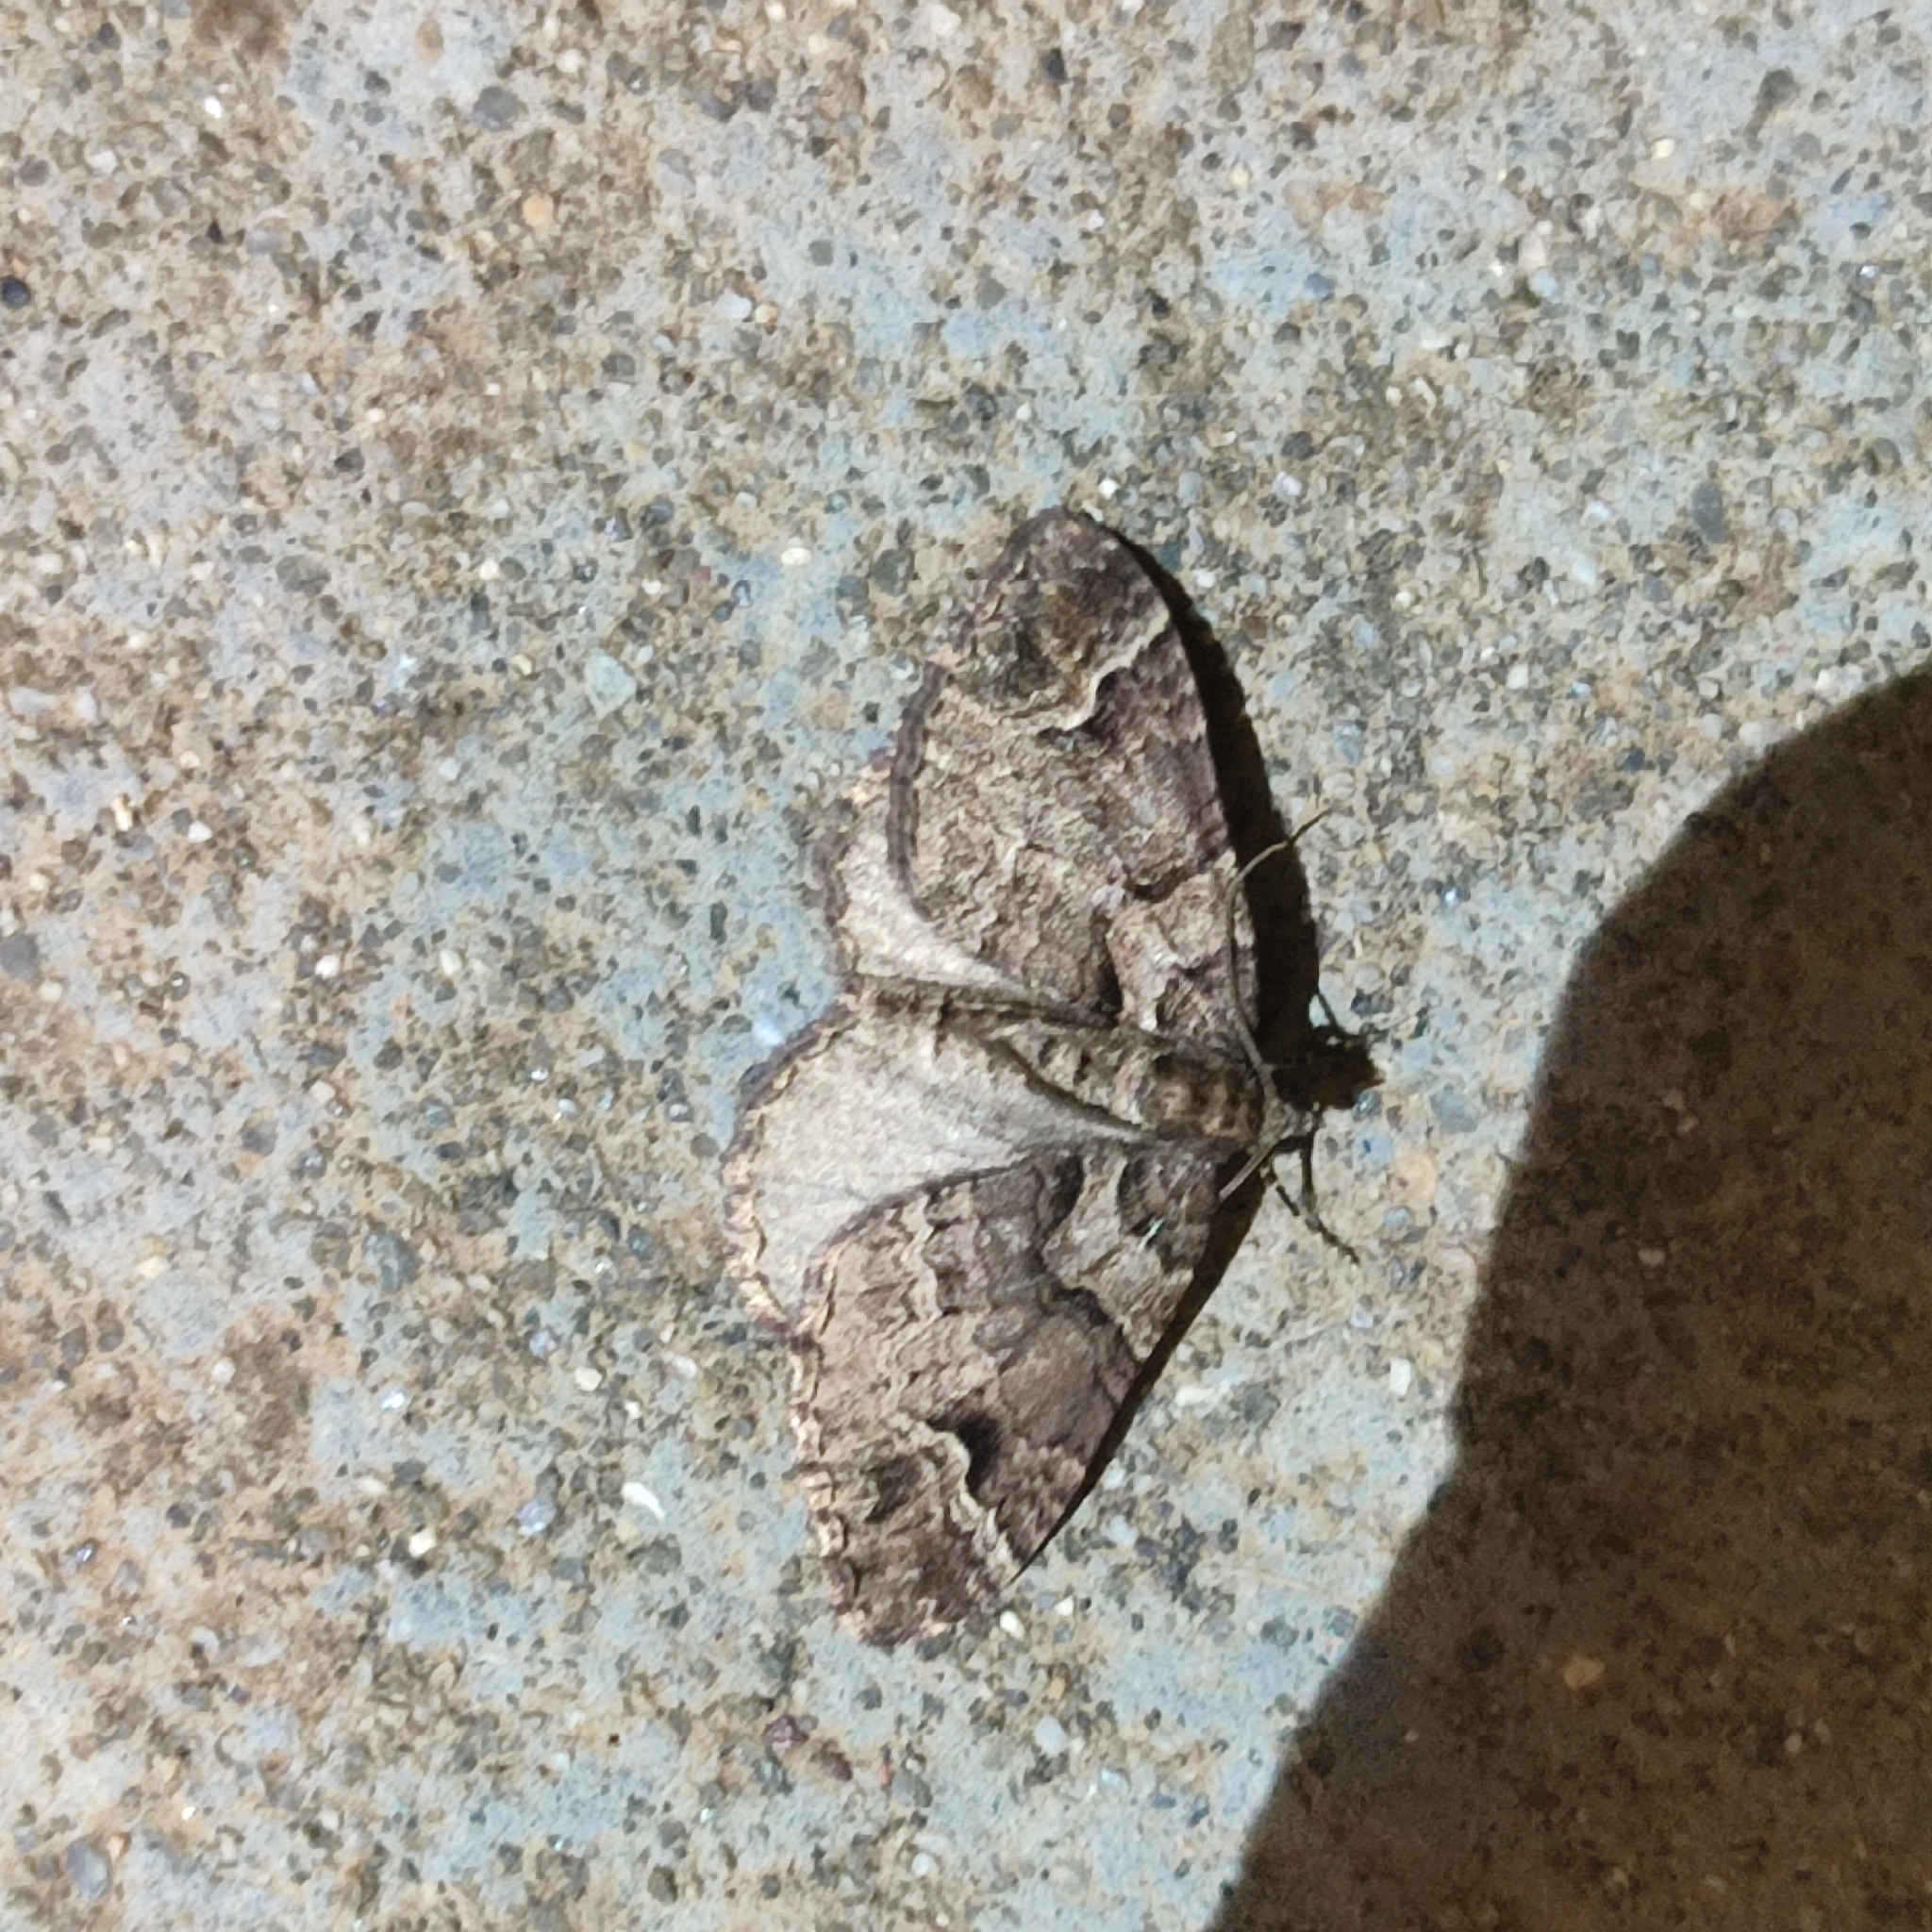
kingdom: Animalia
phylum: Arthropoda
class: Insecta
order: Lepidoptera
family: Geometridae
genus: Catarhoe
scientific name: Catarhoe basochesiata
